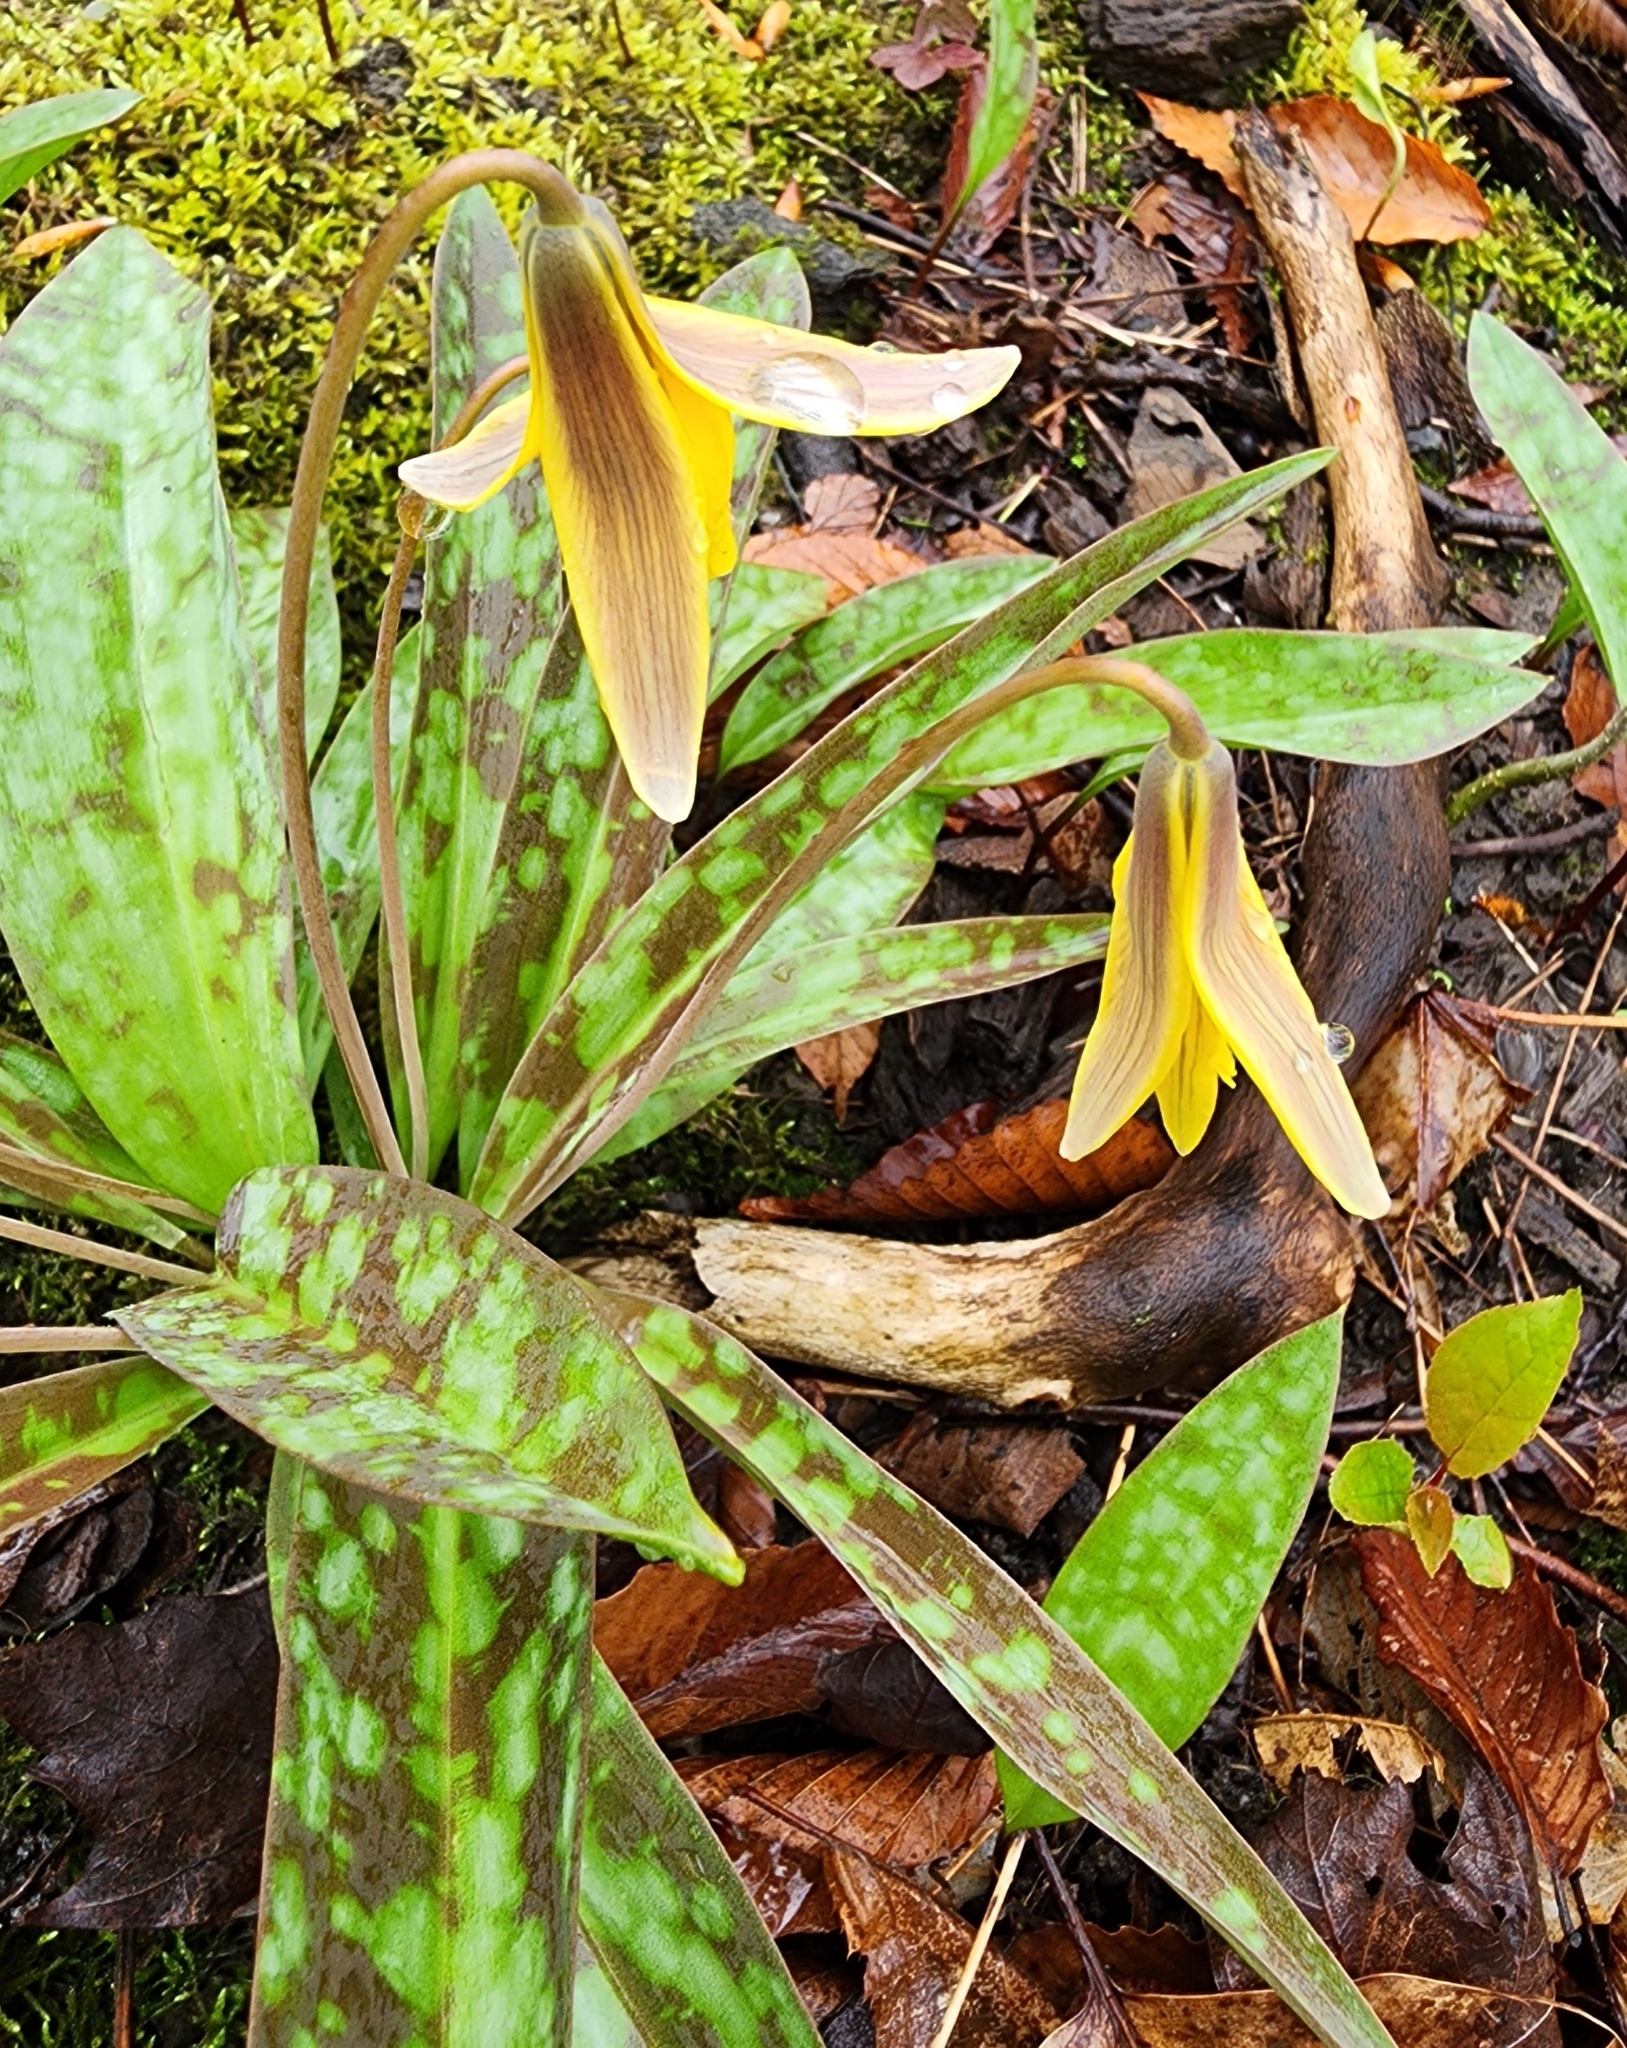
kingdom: Plantae
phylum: Tracheophyta
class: Liliopsida
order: Liliales
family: Liliaceae
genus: Erythronium
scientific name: Erythronium americanum
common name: Yellow adder's-tongue
